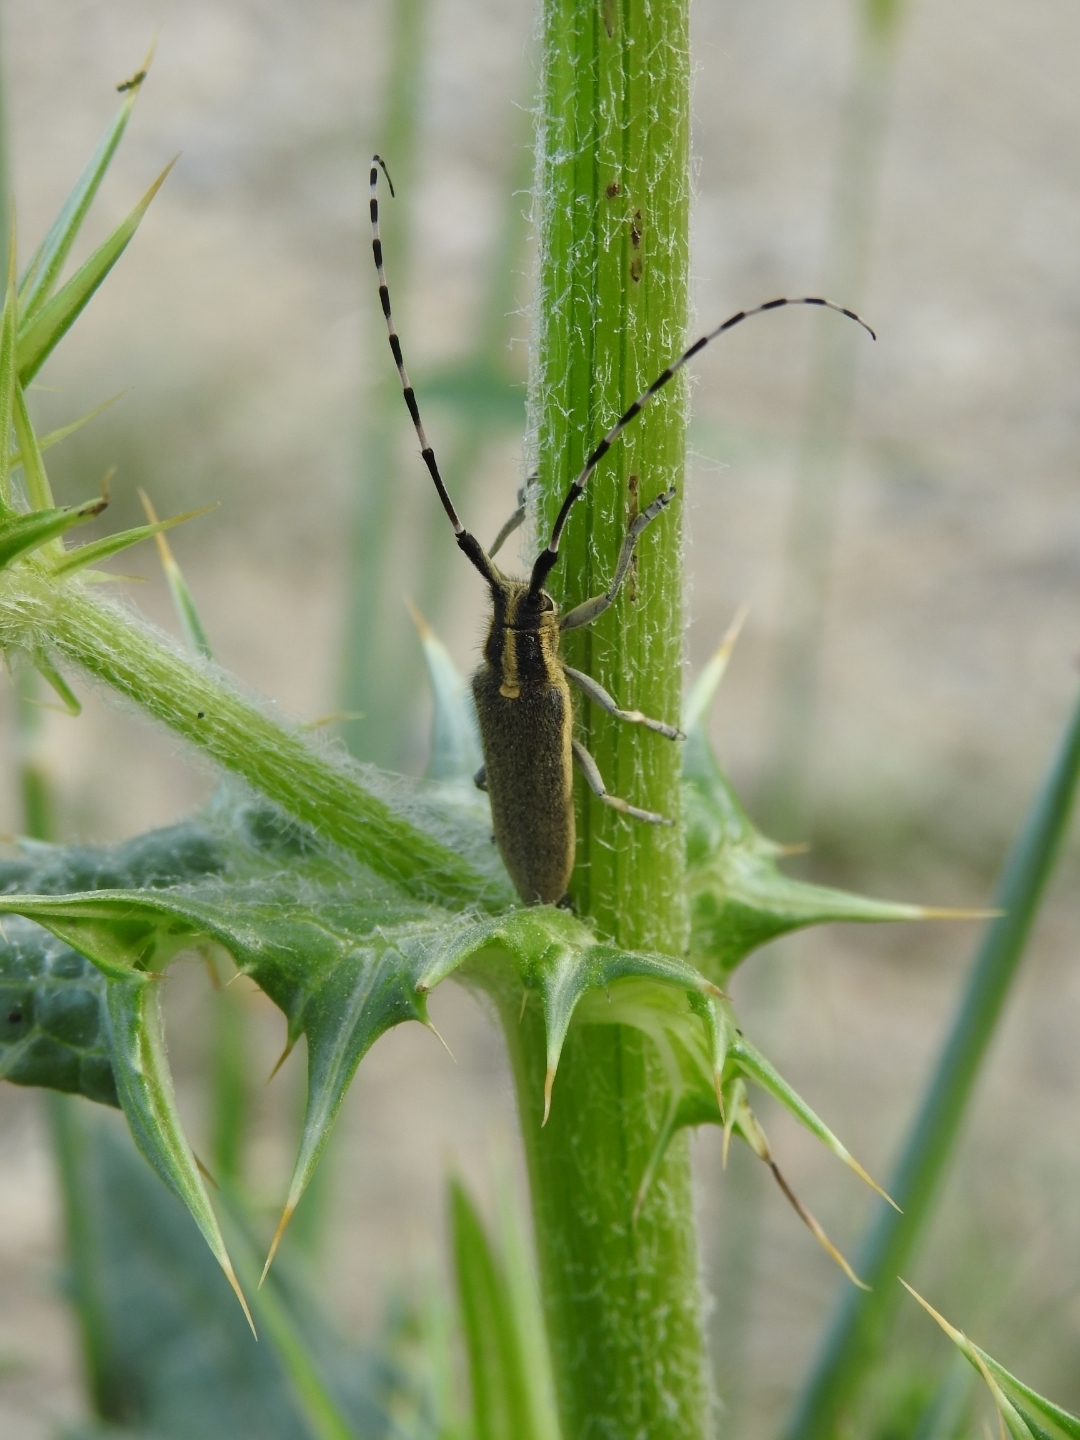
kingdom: Animalia
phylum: Arthropoda
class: Insecta
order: Coleoptera
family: Cerambycidae
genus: Agapanthia
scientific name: Agapanthia cynarae
